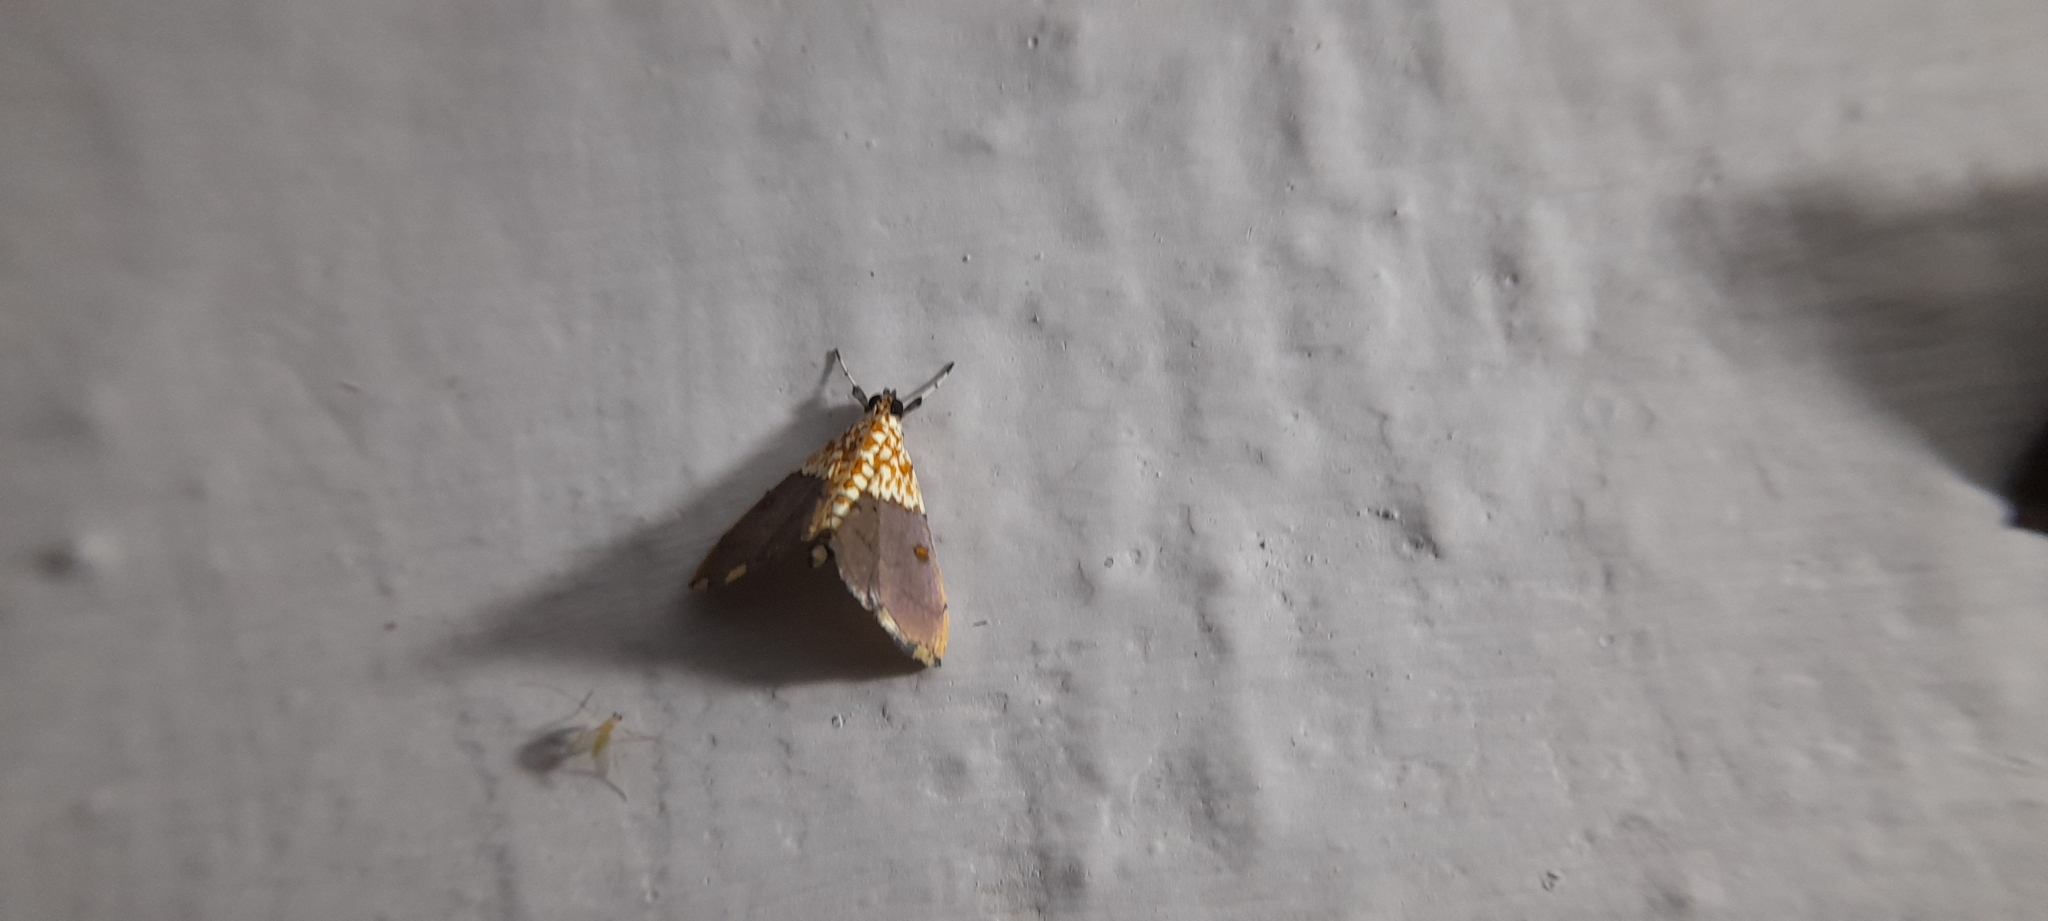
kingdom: Animalia
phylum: Arthropoda
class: Insecta
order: Lepidoptera
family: Crambidae
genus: Agrotera
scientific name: Agrotera basinotata
